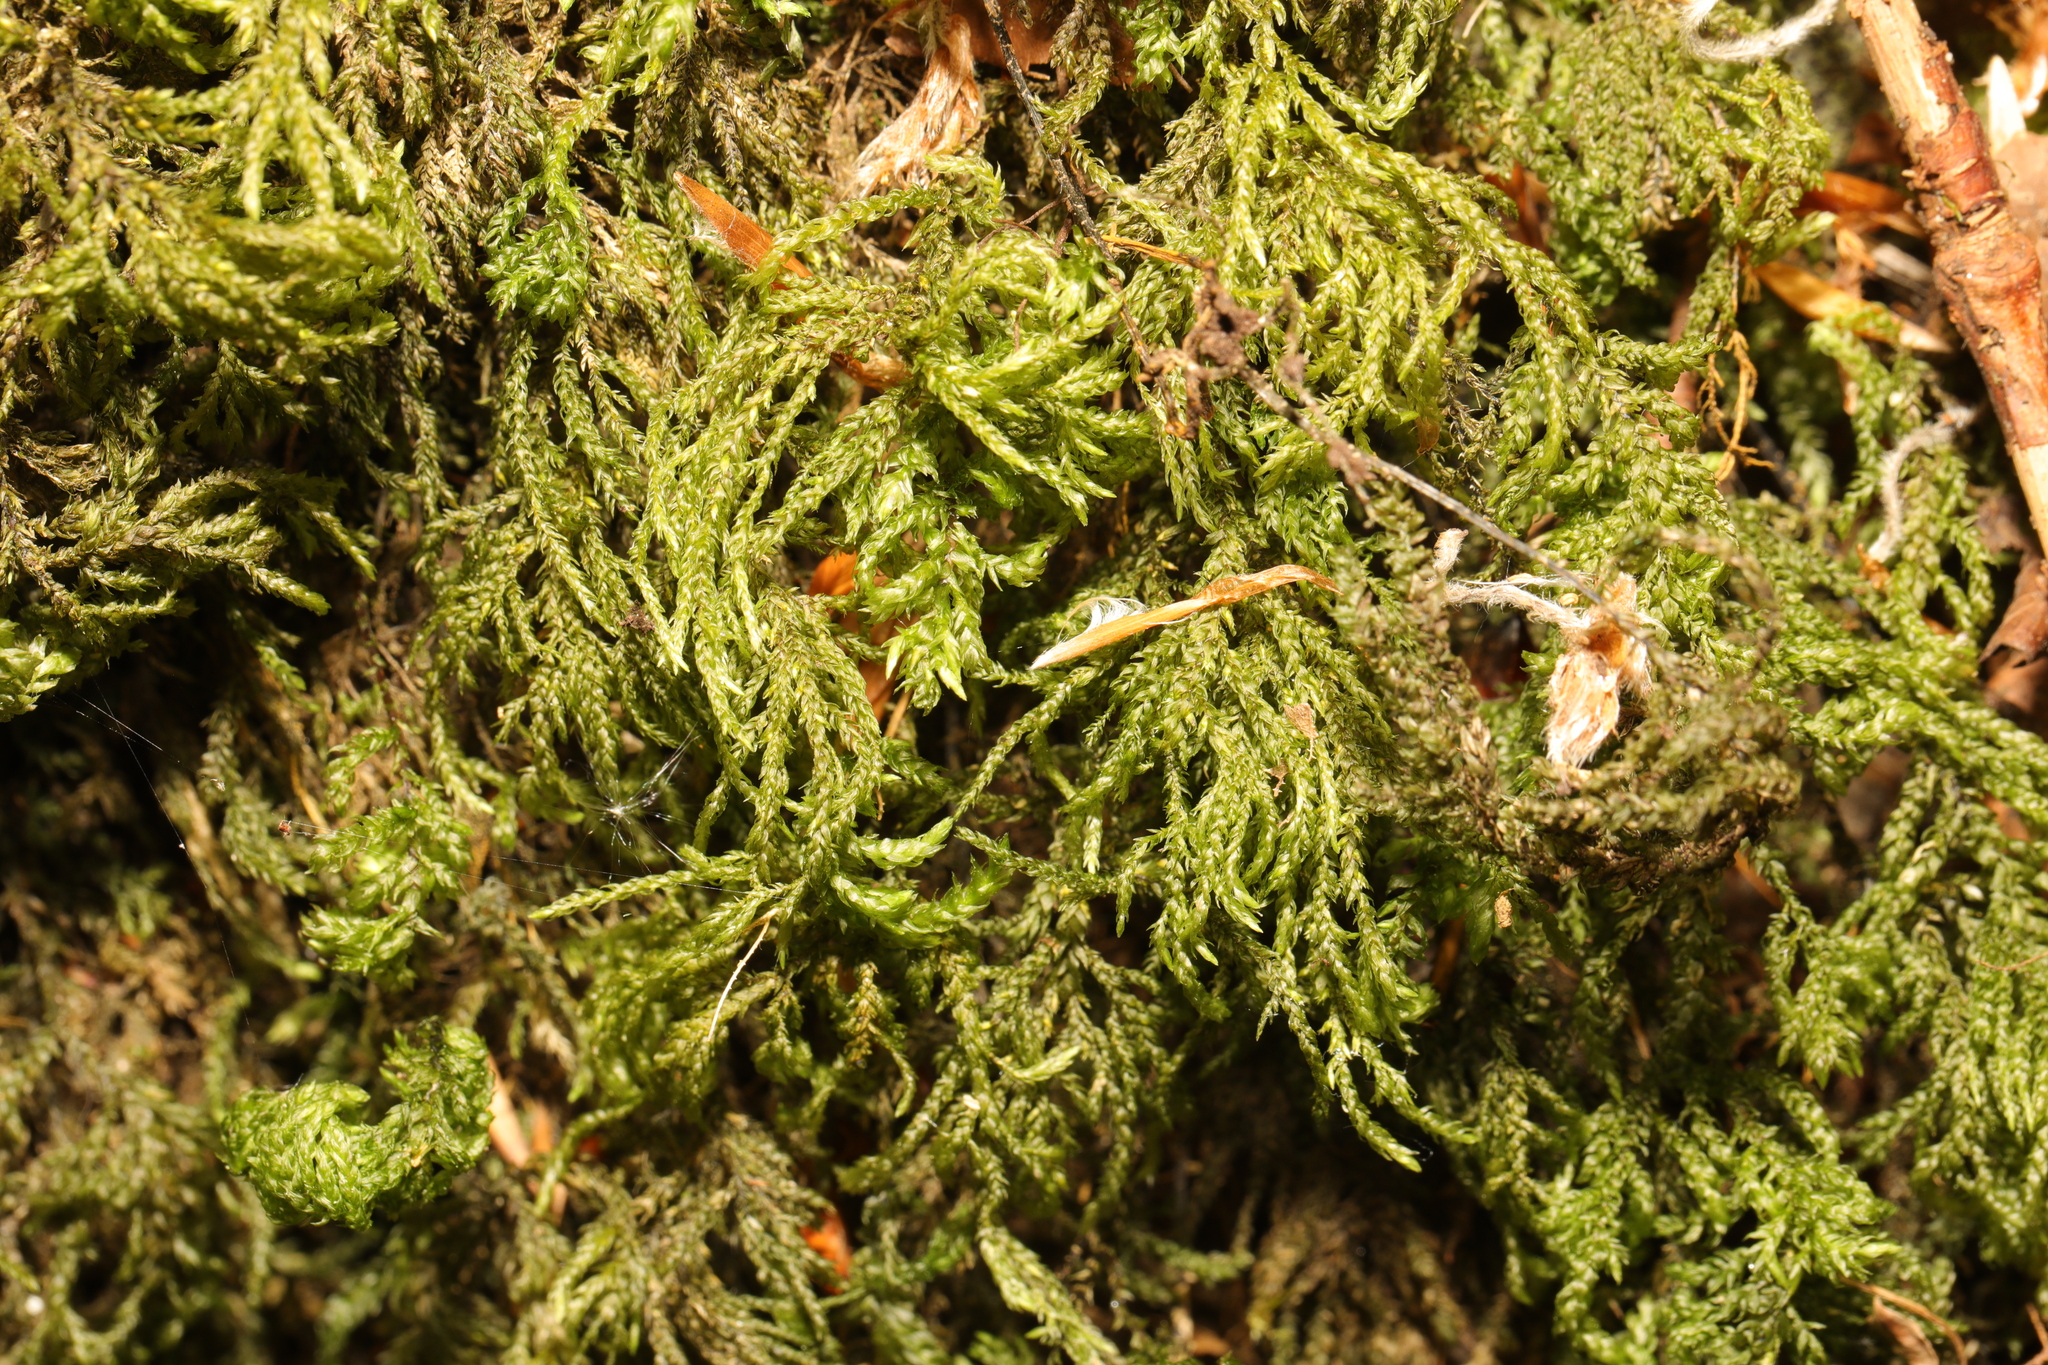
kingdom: Plantae
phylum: Bryophyta
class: Bryopsida
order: Hypnales
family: Neckeraceae
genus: Thamnobryum
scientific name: Thamnobryum alopecurum
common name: Fox-tail feather-moss
